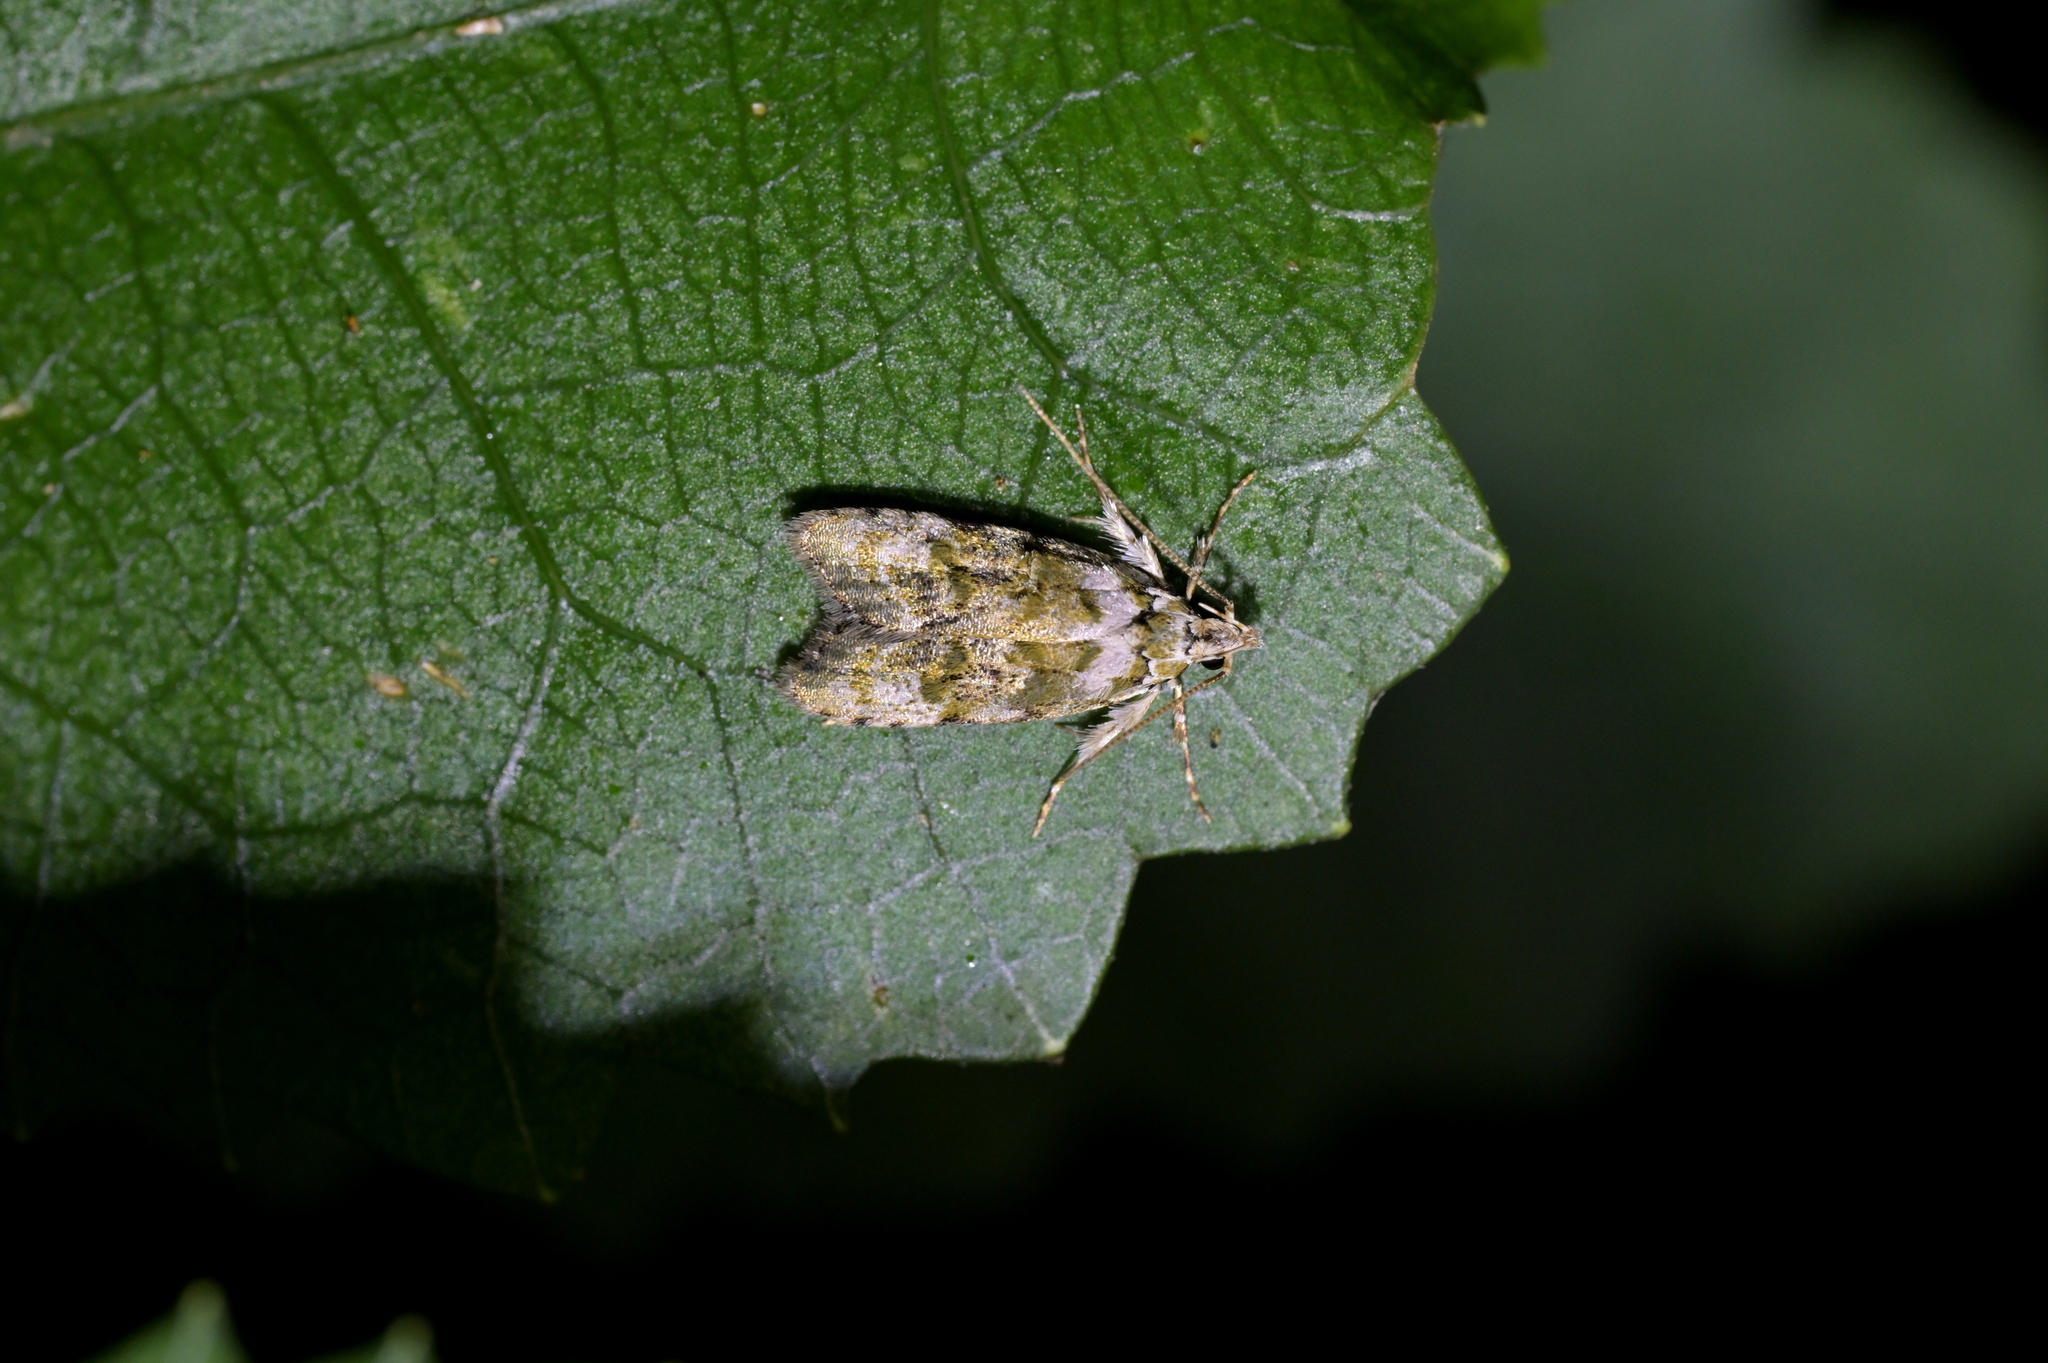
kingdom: Animalia
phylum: Arthropoda
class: Insecta
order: Lepidoptera
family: Oecophoridae
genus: Izatha
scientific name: Izatha prasophyta
